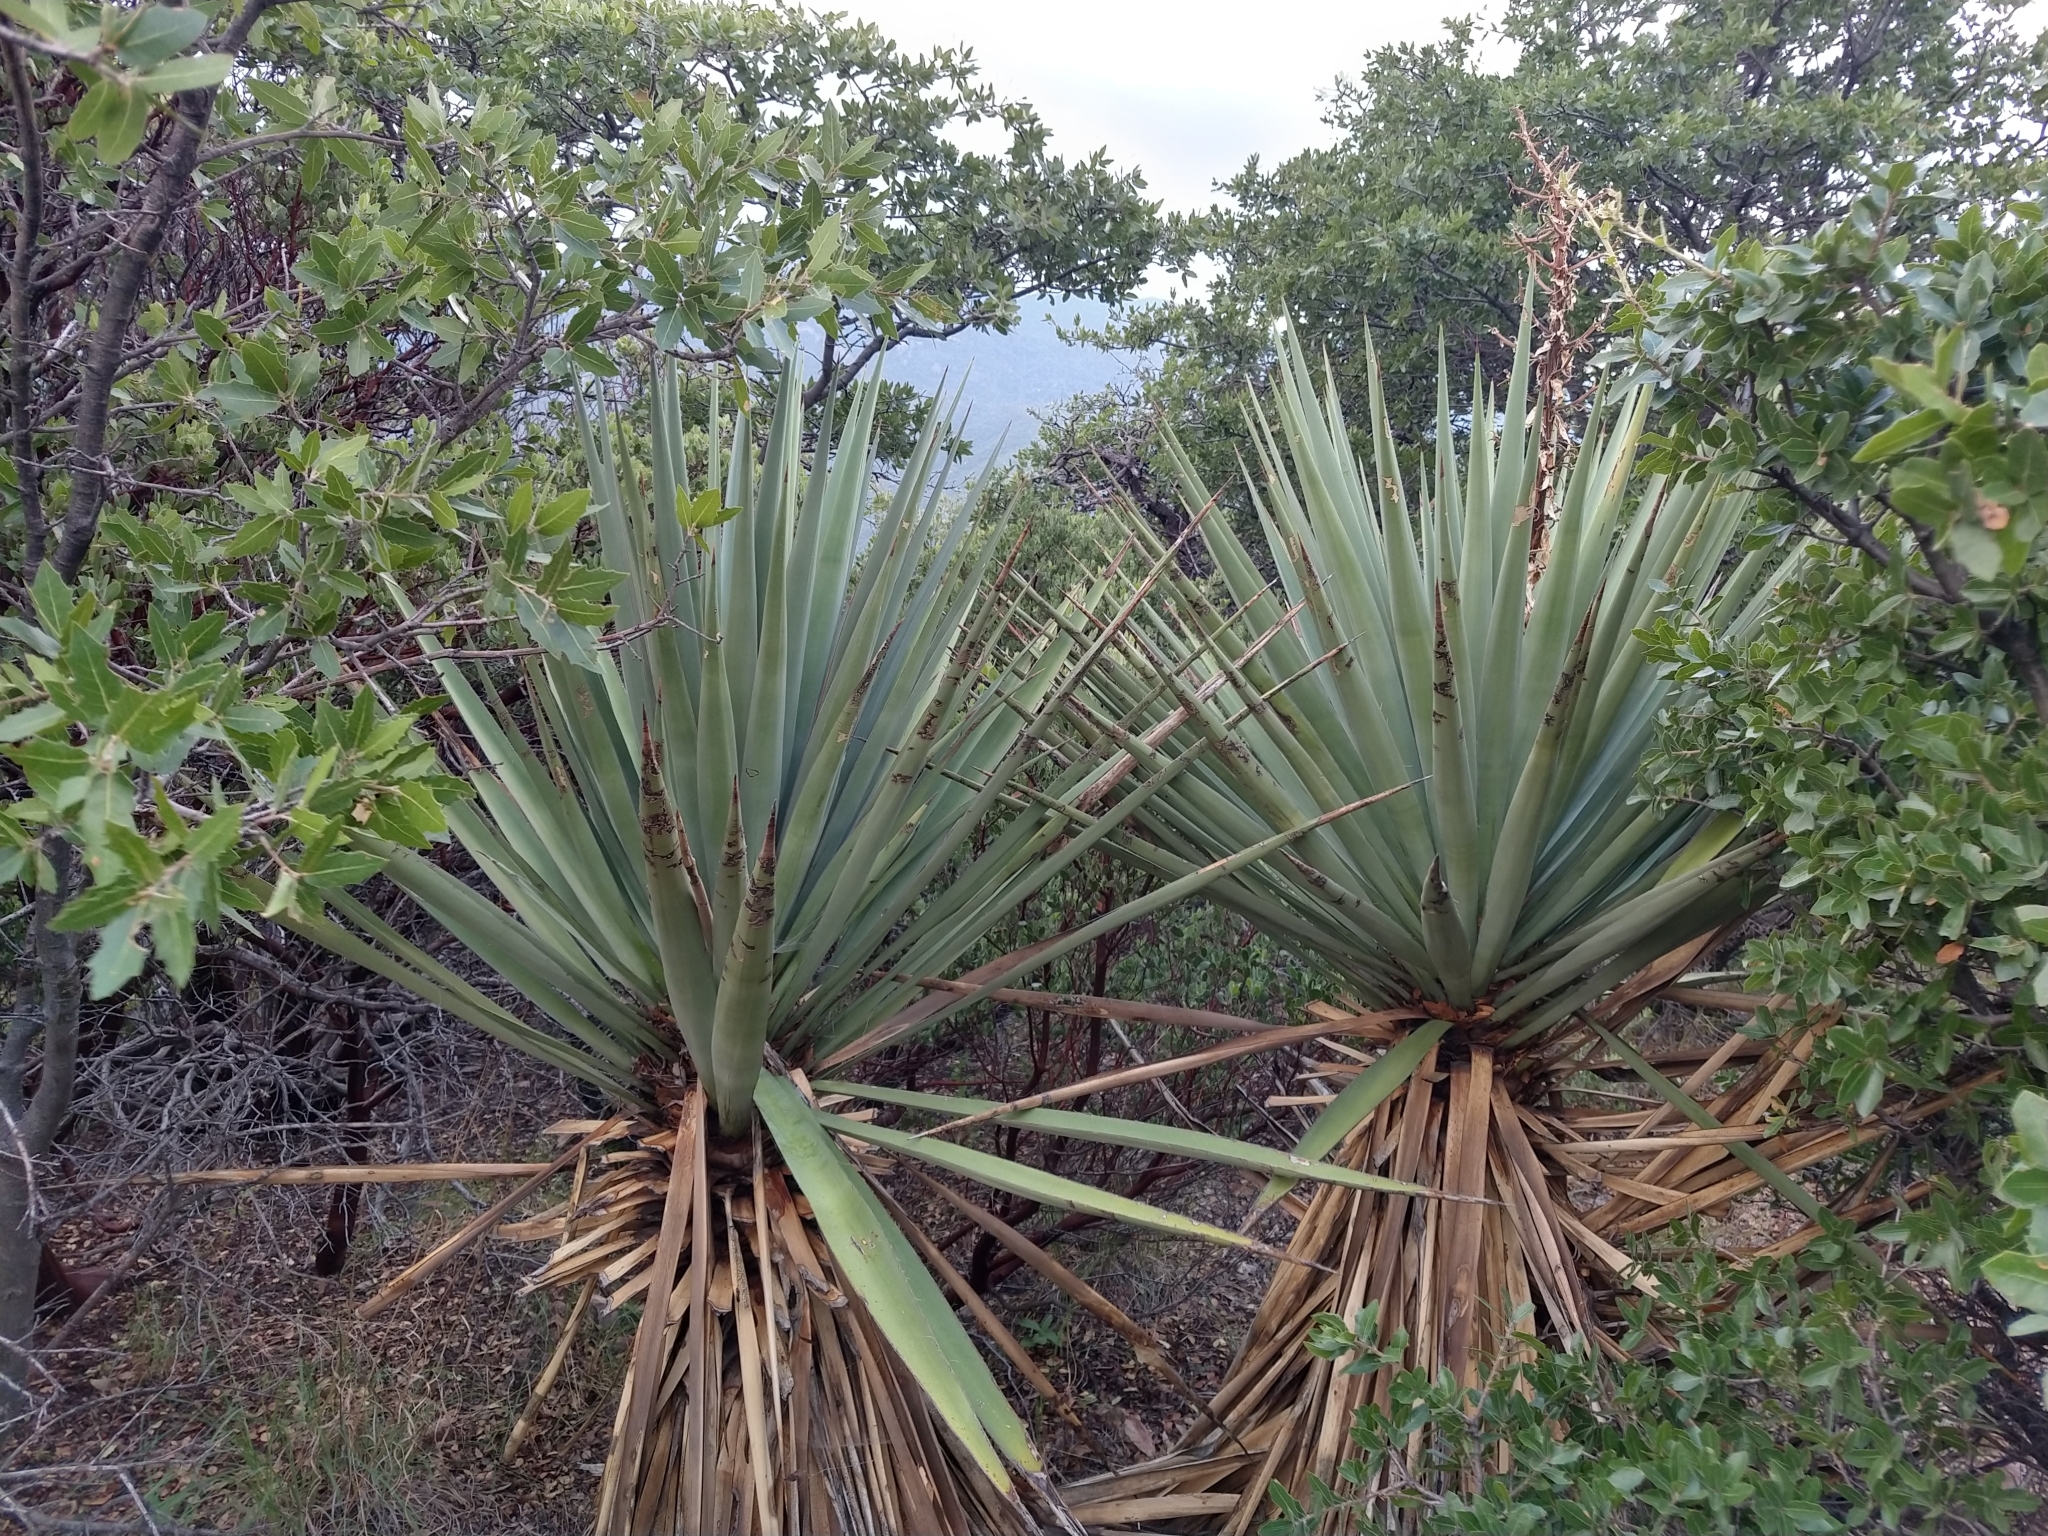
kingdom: Plantae
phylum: Tracheophyta
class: Liliopsida
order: Asparagales
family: Asparagaceae
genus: Yucca
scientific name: Yucca schottii
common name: Hoary yucca
